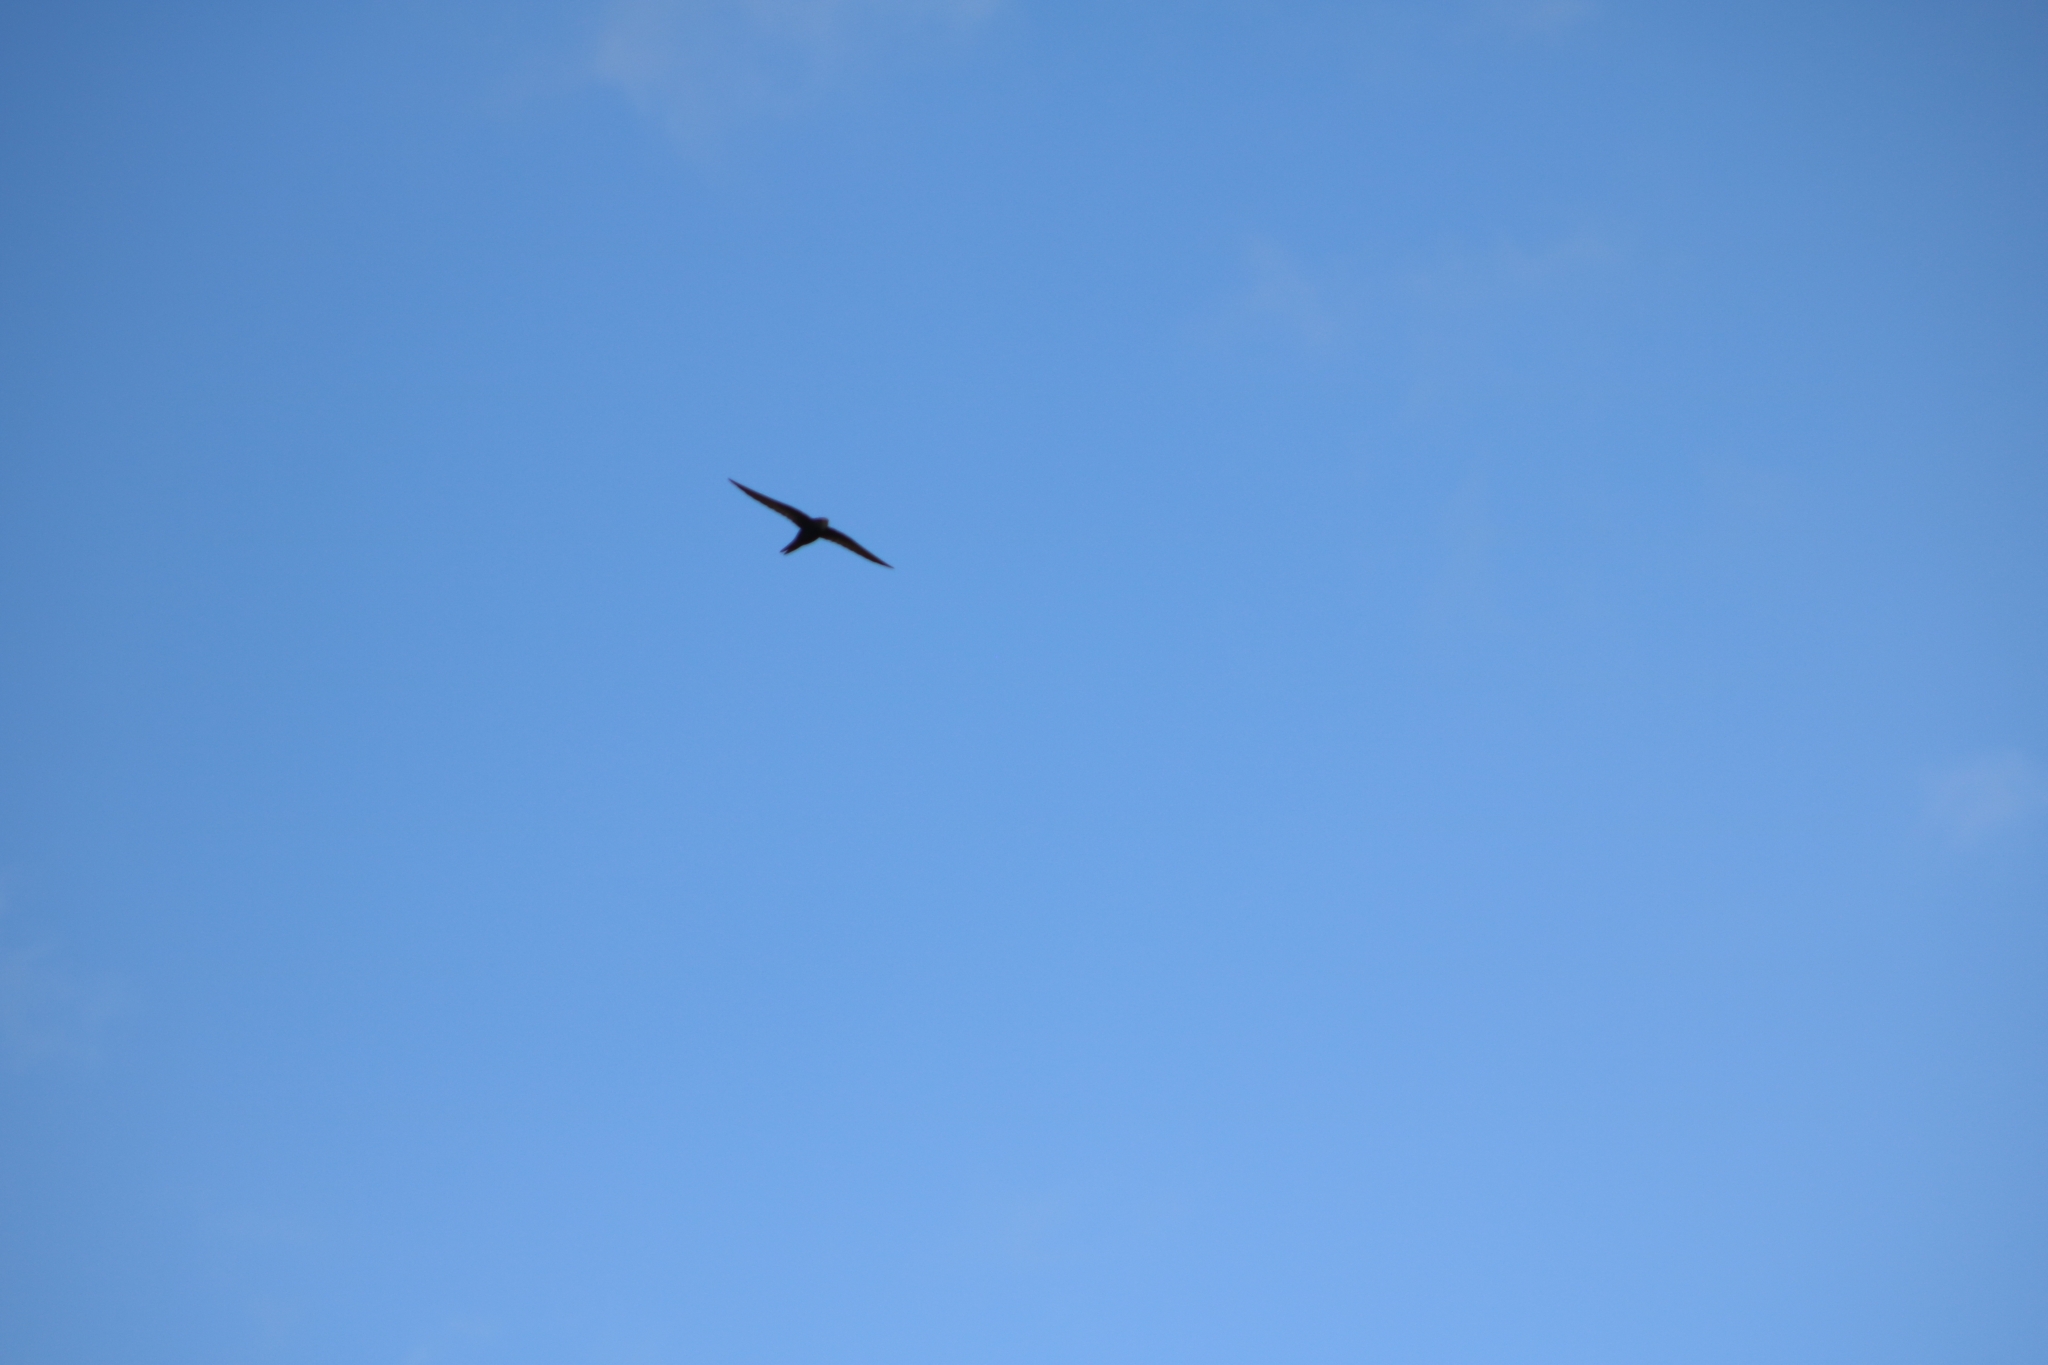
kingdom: Animalia
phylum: Chordata
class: Aves
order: Apodiformes
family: Apodidae
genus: Apus
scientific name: Apus apus
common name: Common swift
